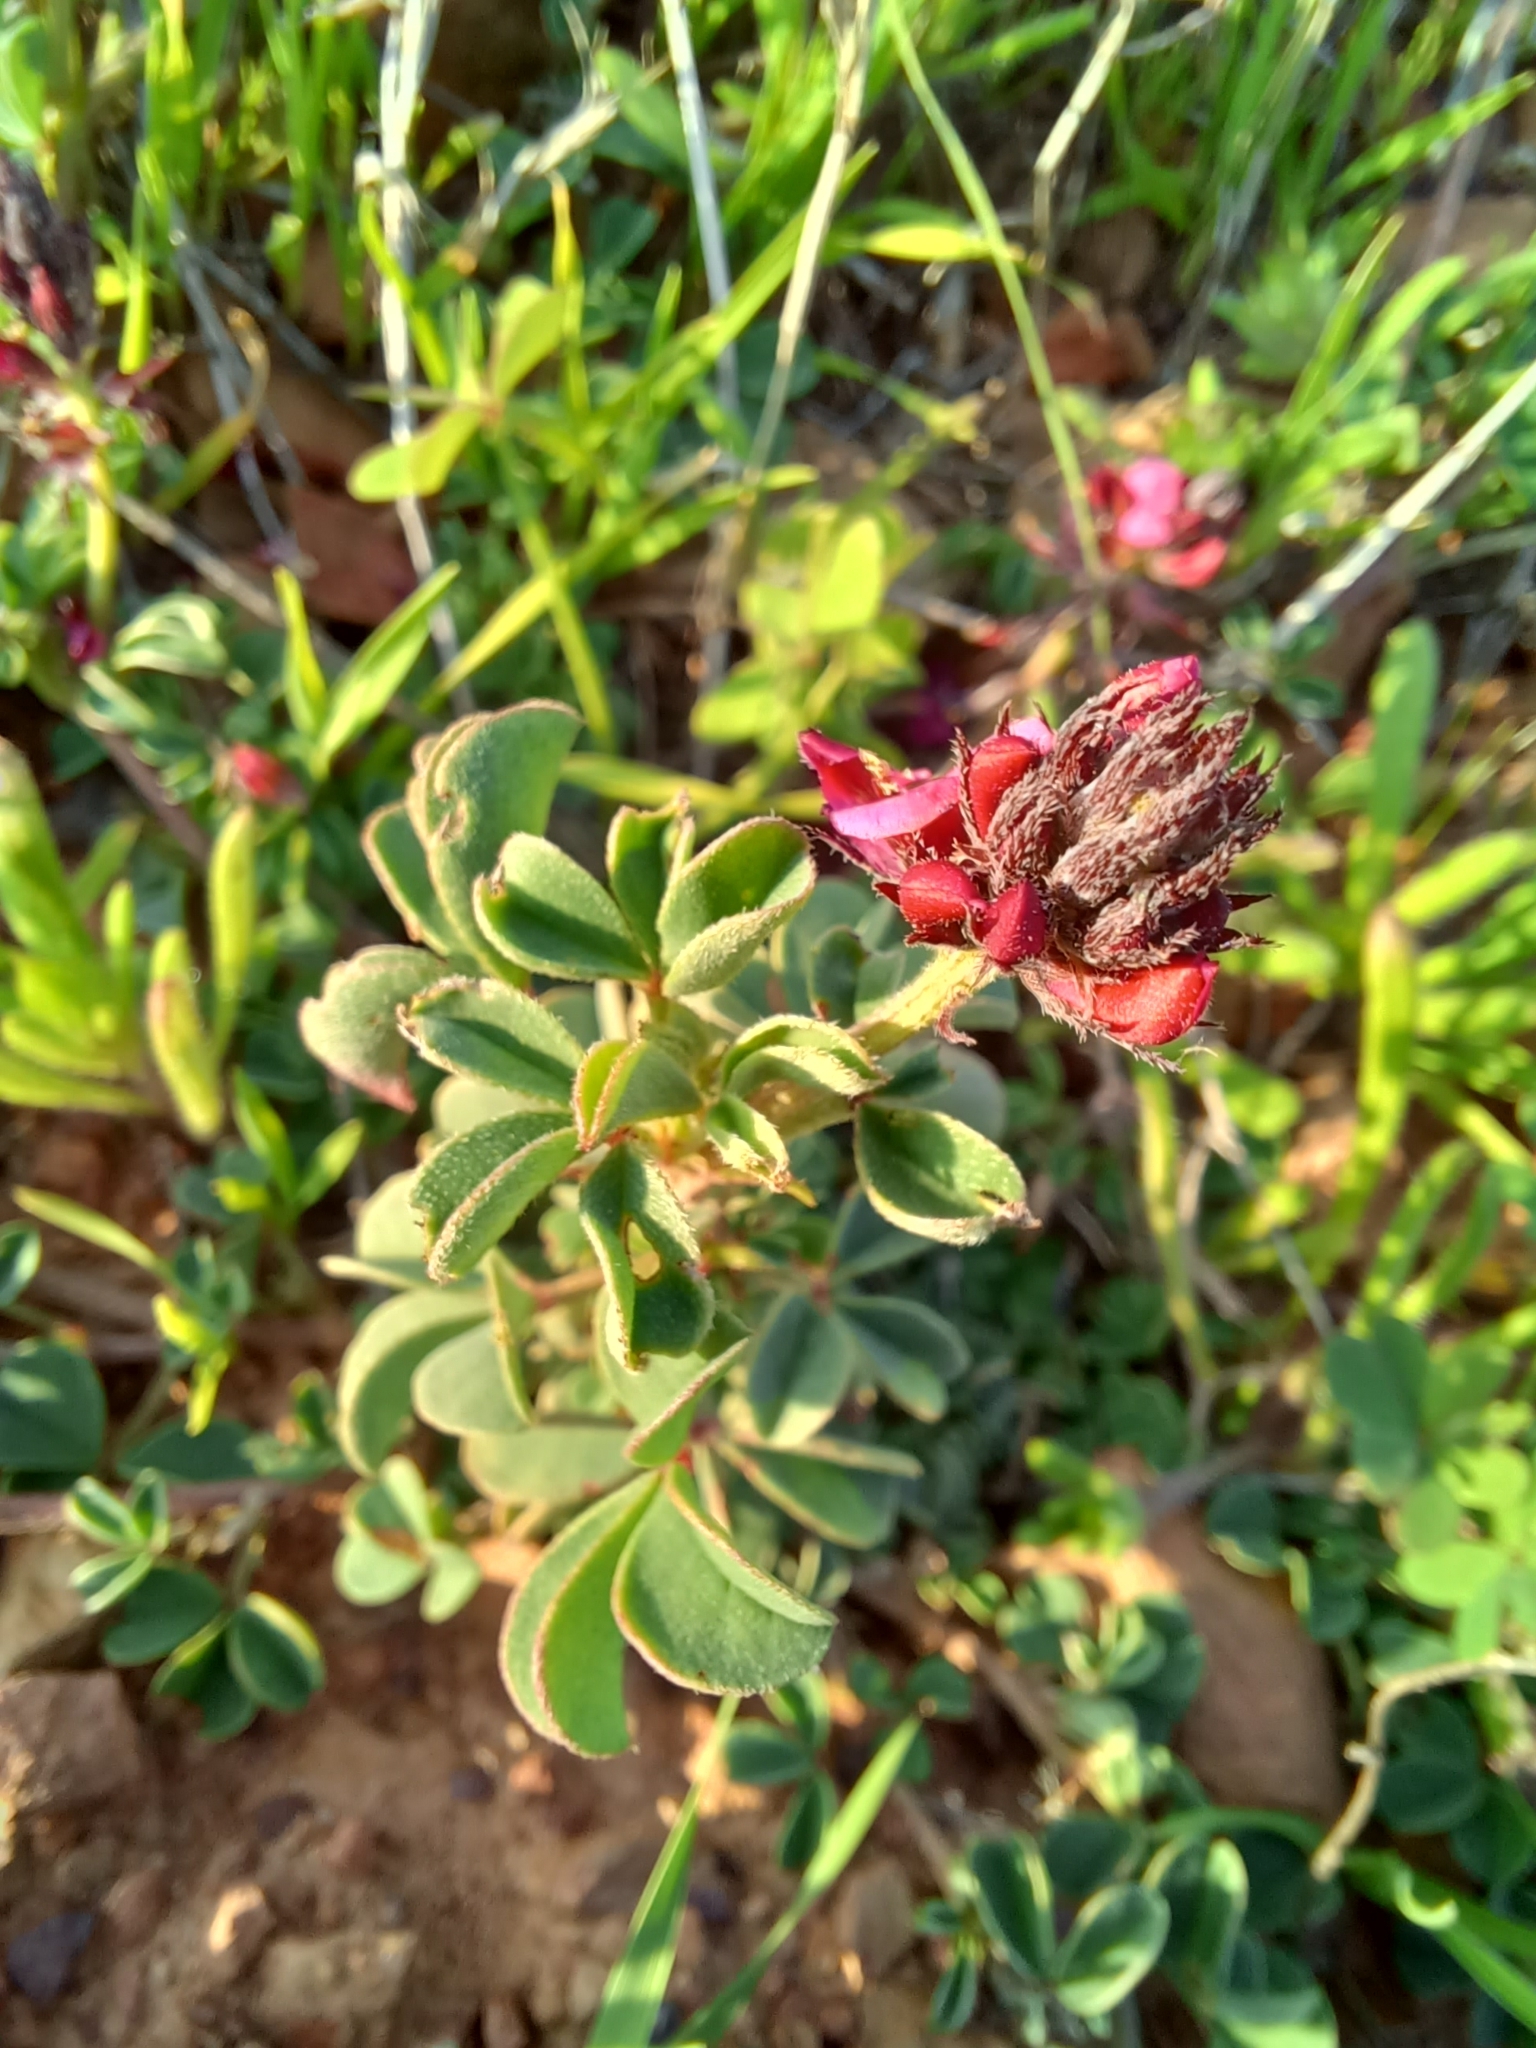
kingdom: Plantae
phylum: Tracheophyta
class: Magnoliopsida
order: Fabales
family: Fabaceae
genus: Indigofera
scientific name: Indigofera
